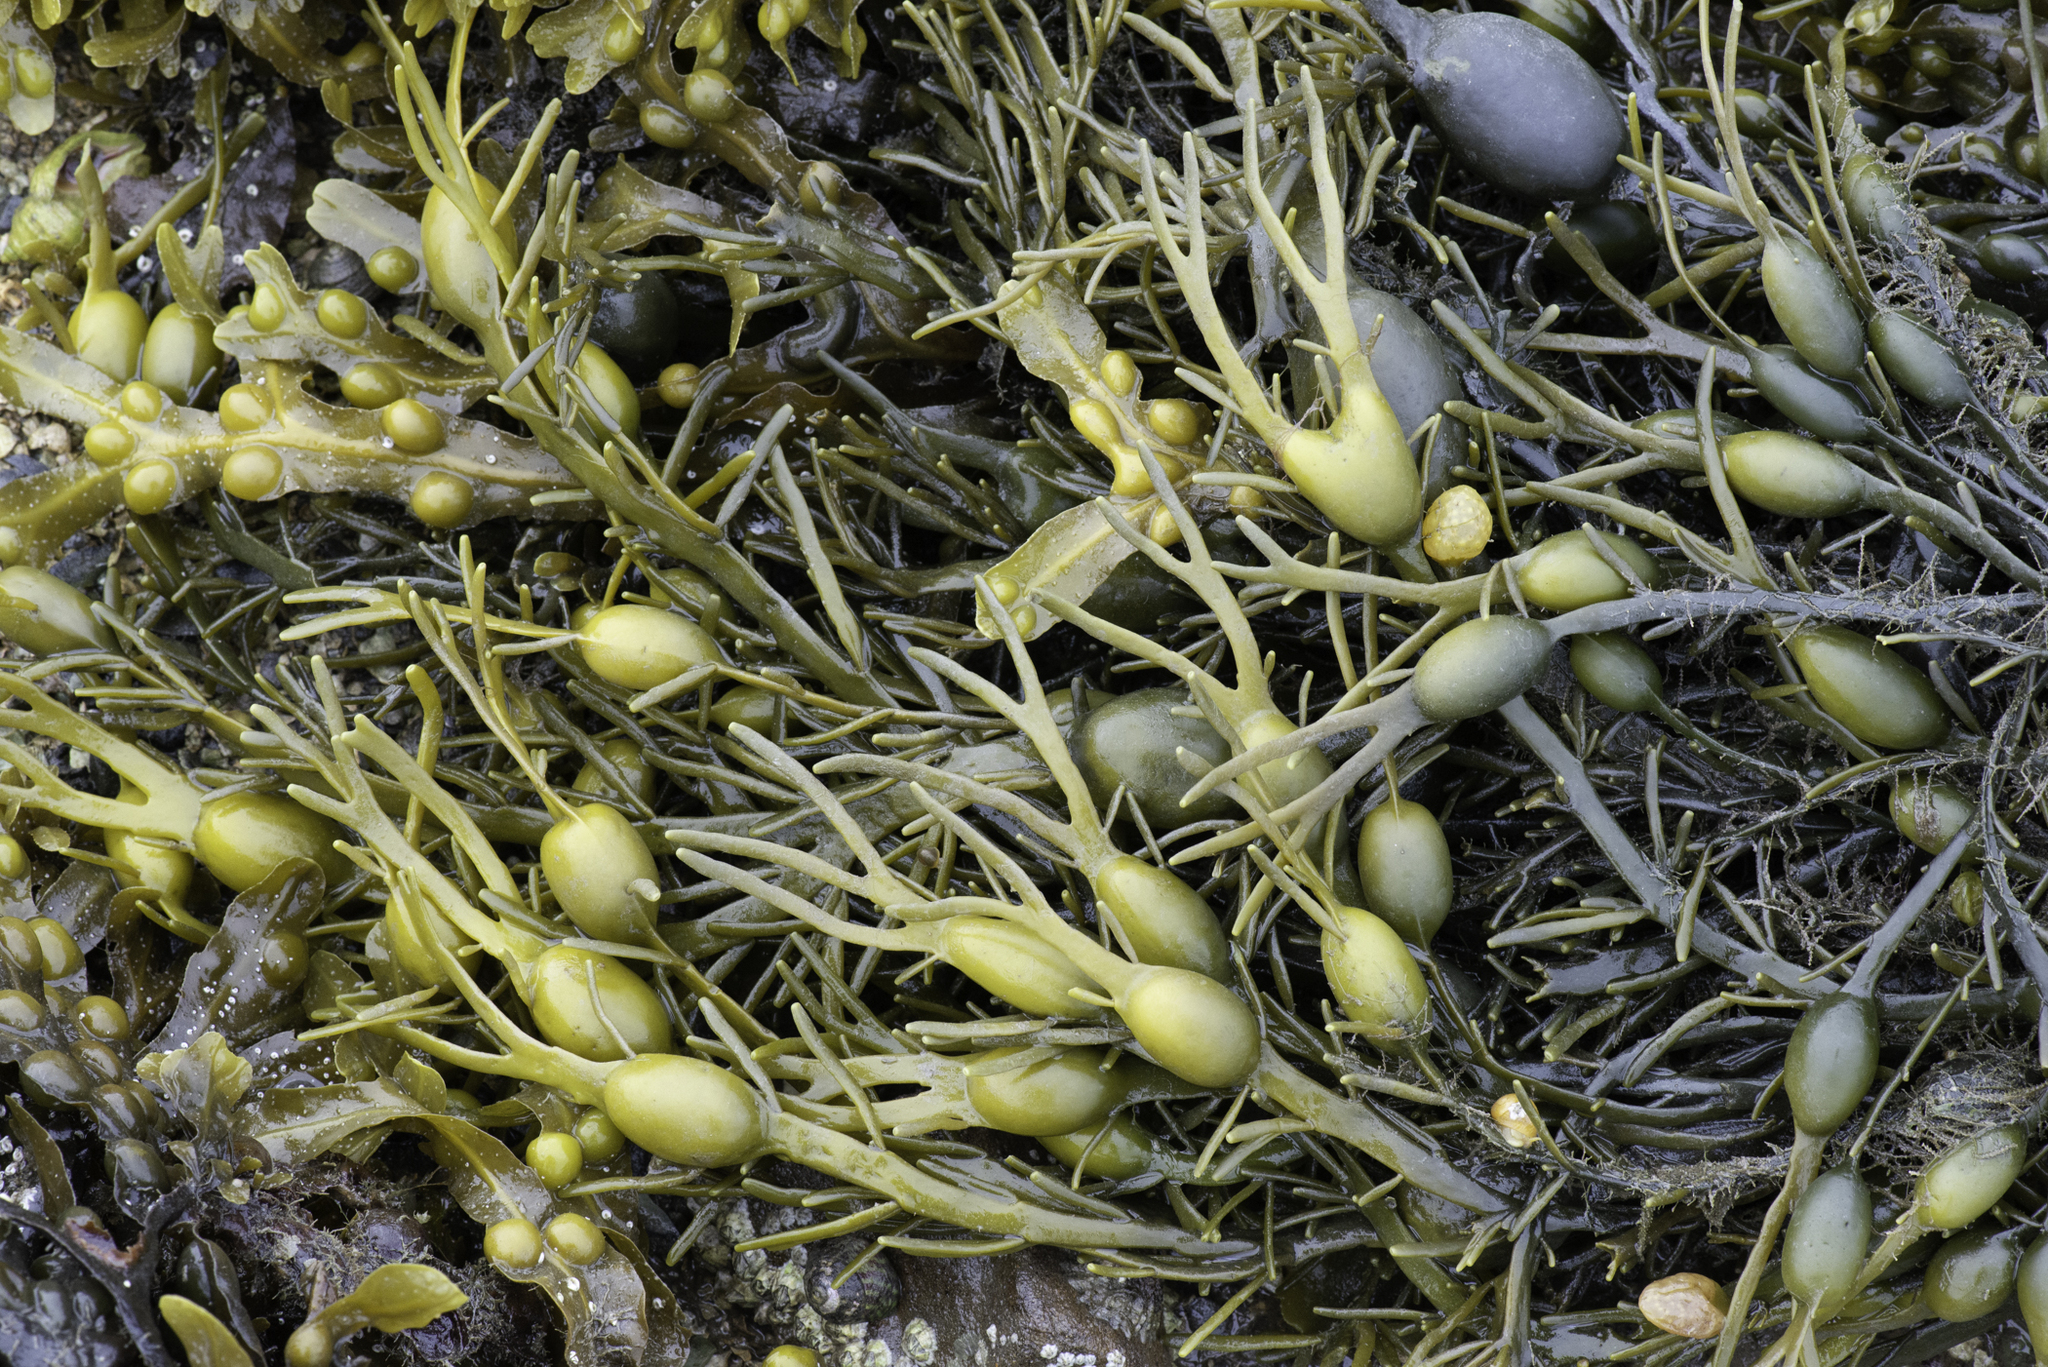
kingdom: Chromista
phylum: Ochrophyta
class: Phaeophyceae
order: Fucales
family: Fucaceae
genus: Ascophyllum
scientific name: Ascophyllum nodosum
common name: Knotted wrack
